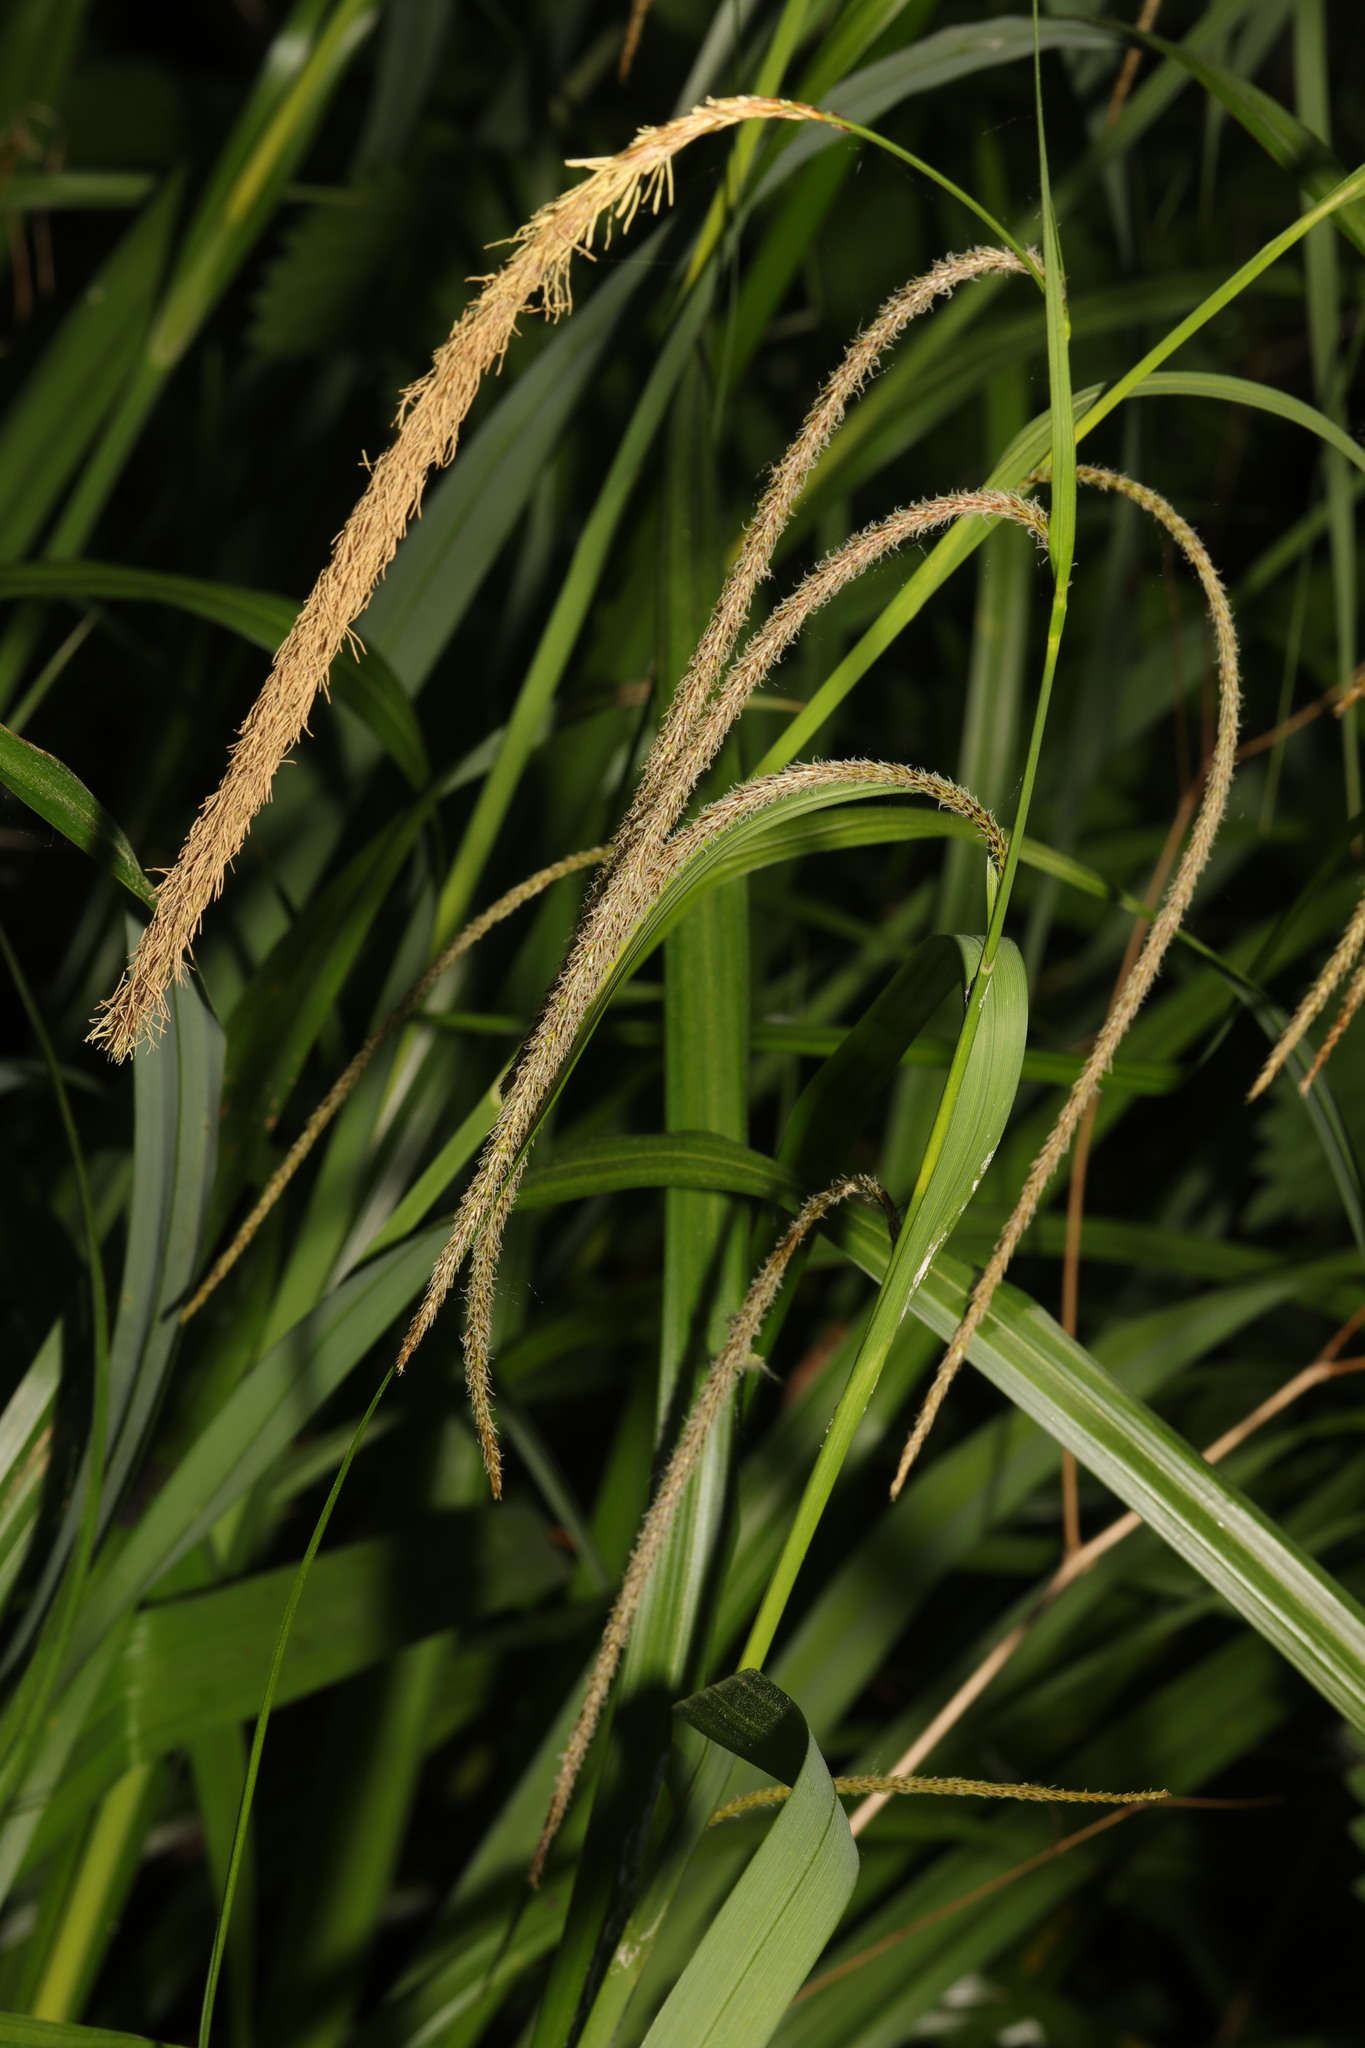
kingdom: Plantae
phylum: Tracheophyta
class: Liliopsida
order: Poales
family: Cyperaceae
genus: Carex
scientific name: Carex pendula
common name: Pendulous sedge
